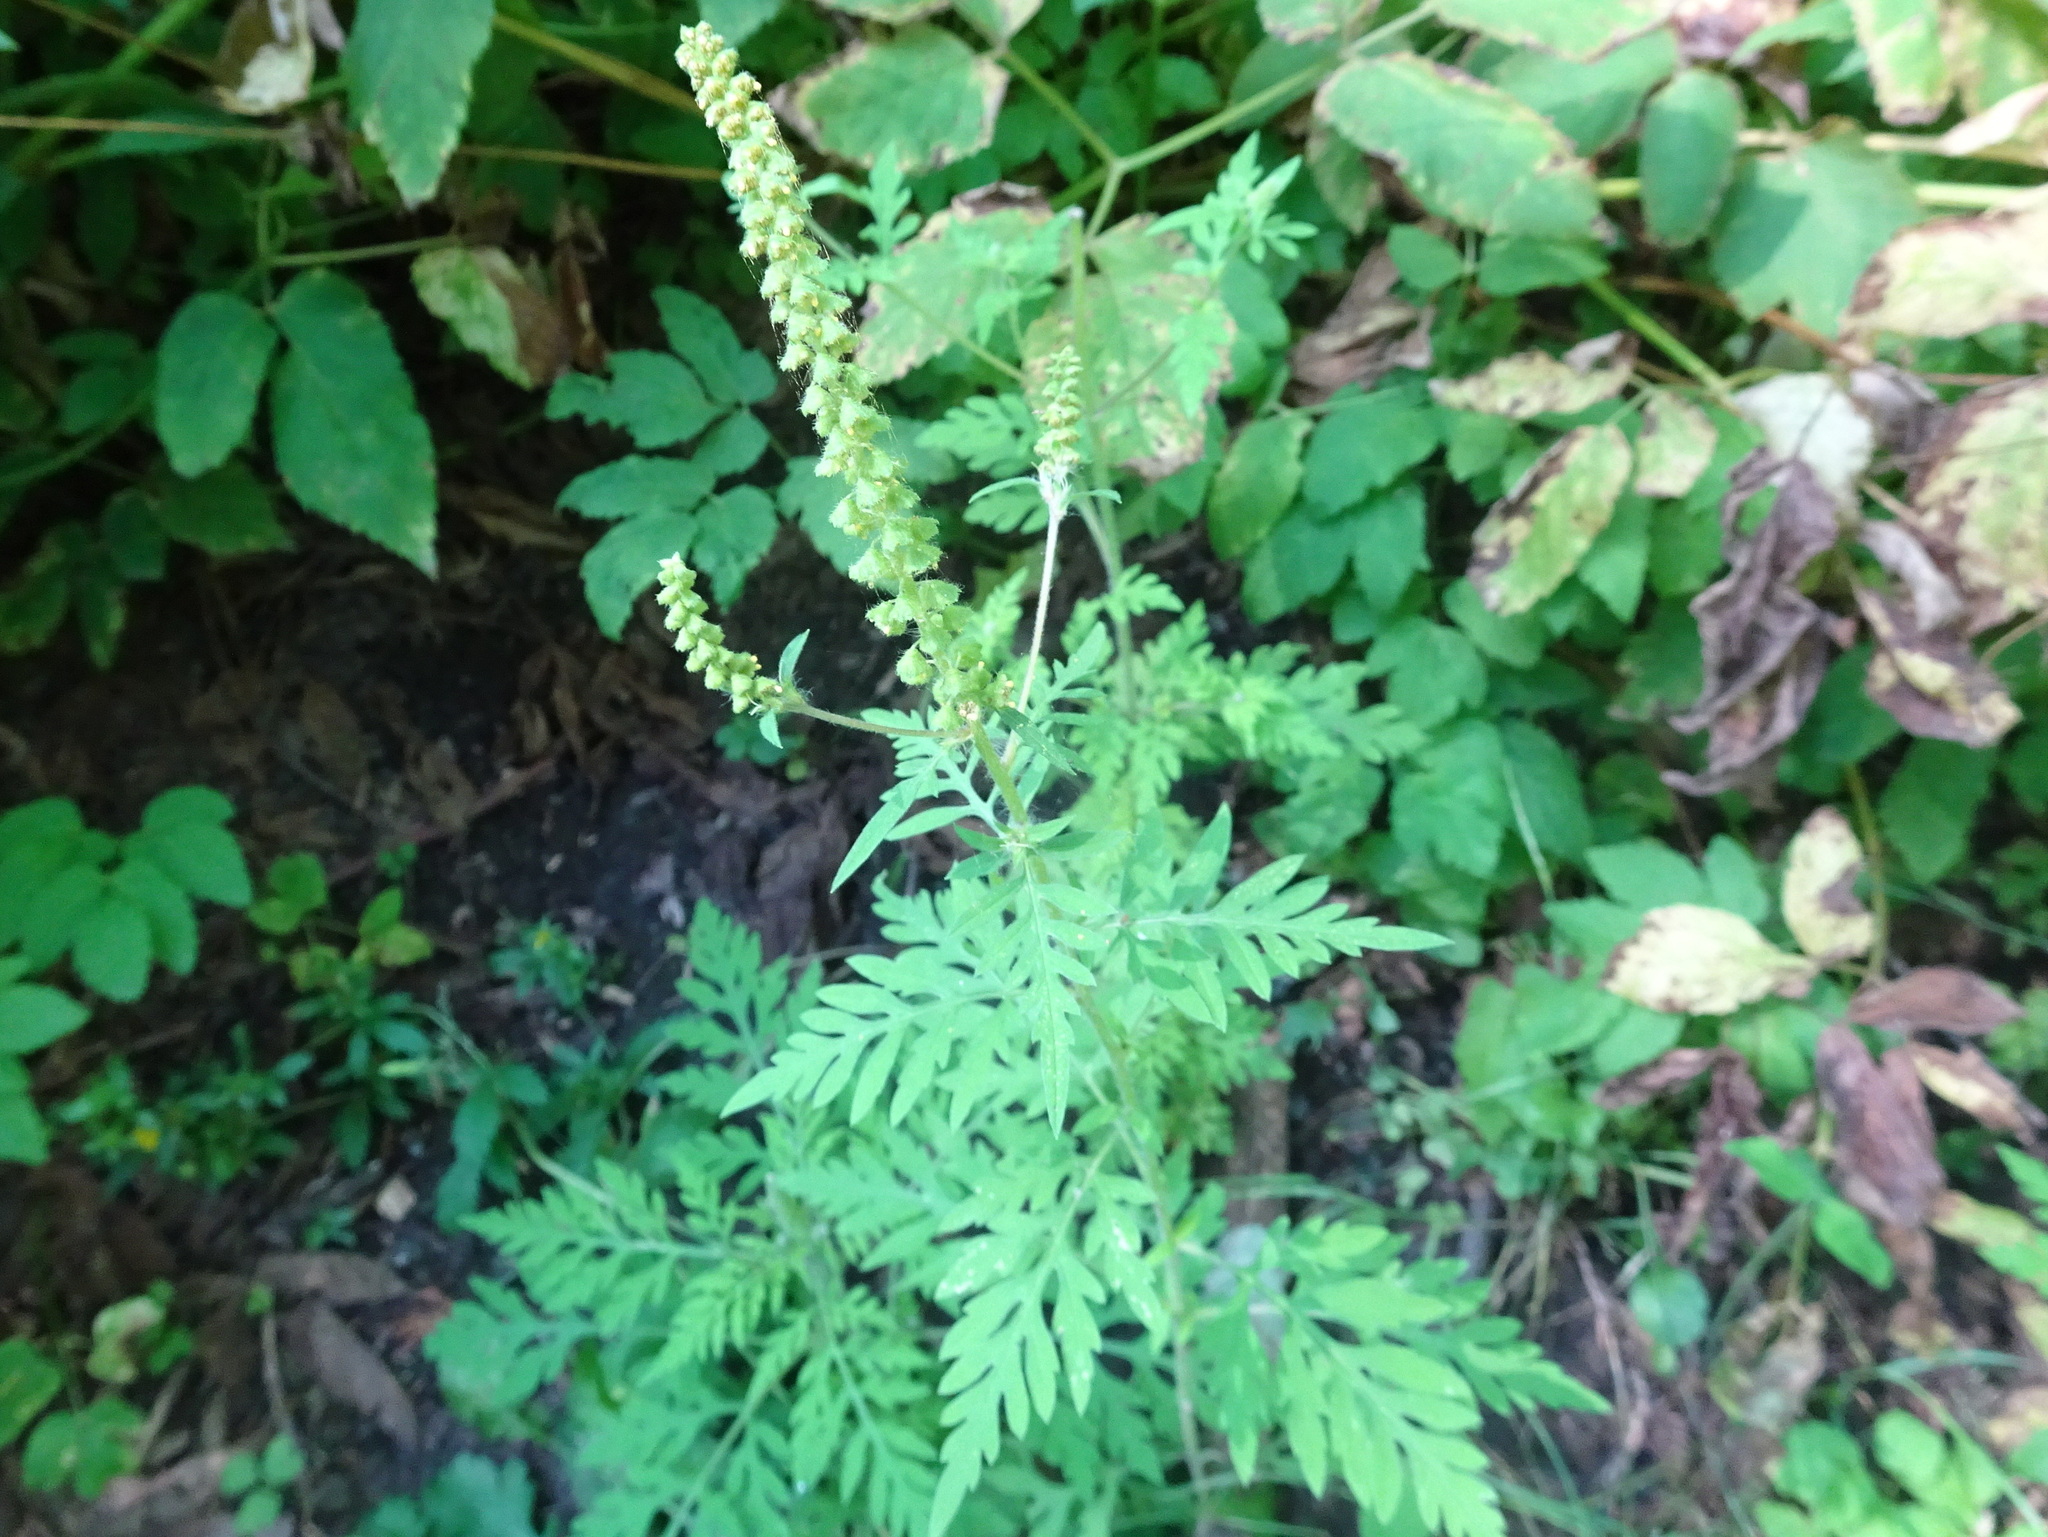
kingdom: Plantae
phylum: Tracheophyta
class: Magnoliopsida
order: Asterales
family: Asteraceae
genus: Ambrosia
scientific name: Ambrosia artemisiifolia
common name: Annual ragweed
